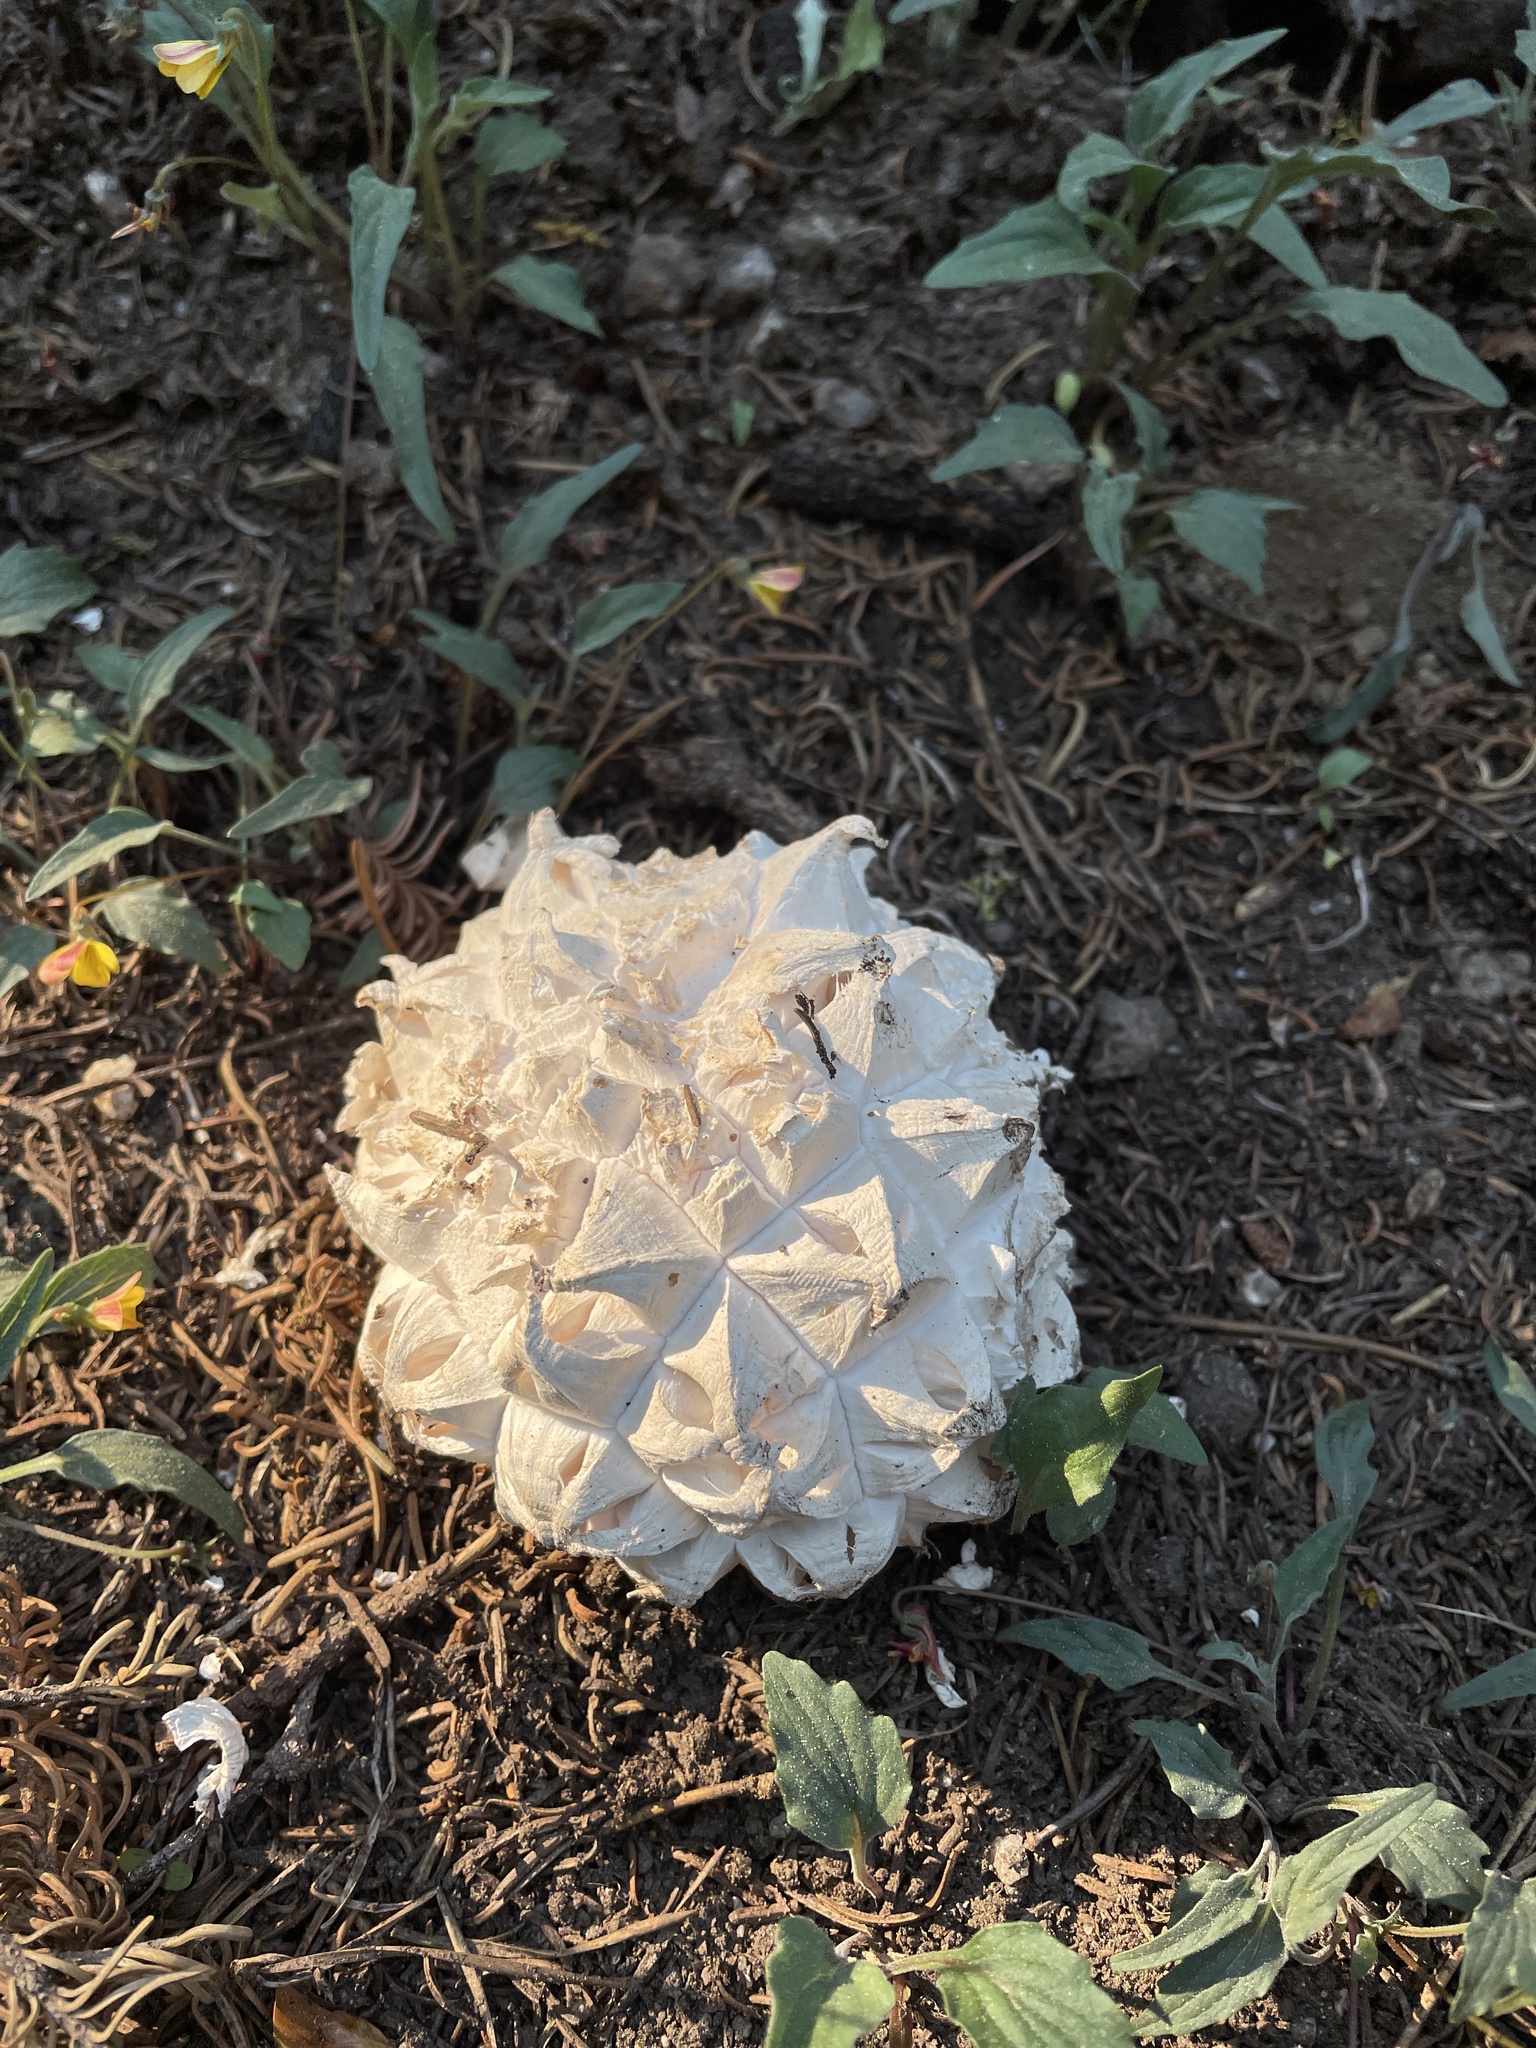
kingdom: Fungi
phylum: Basidiomycota
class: Agaricomycetes
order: Agaricales
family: Lycoperdaceae
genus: Calvatia
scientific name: Calvatia sculpta
